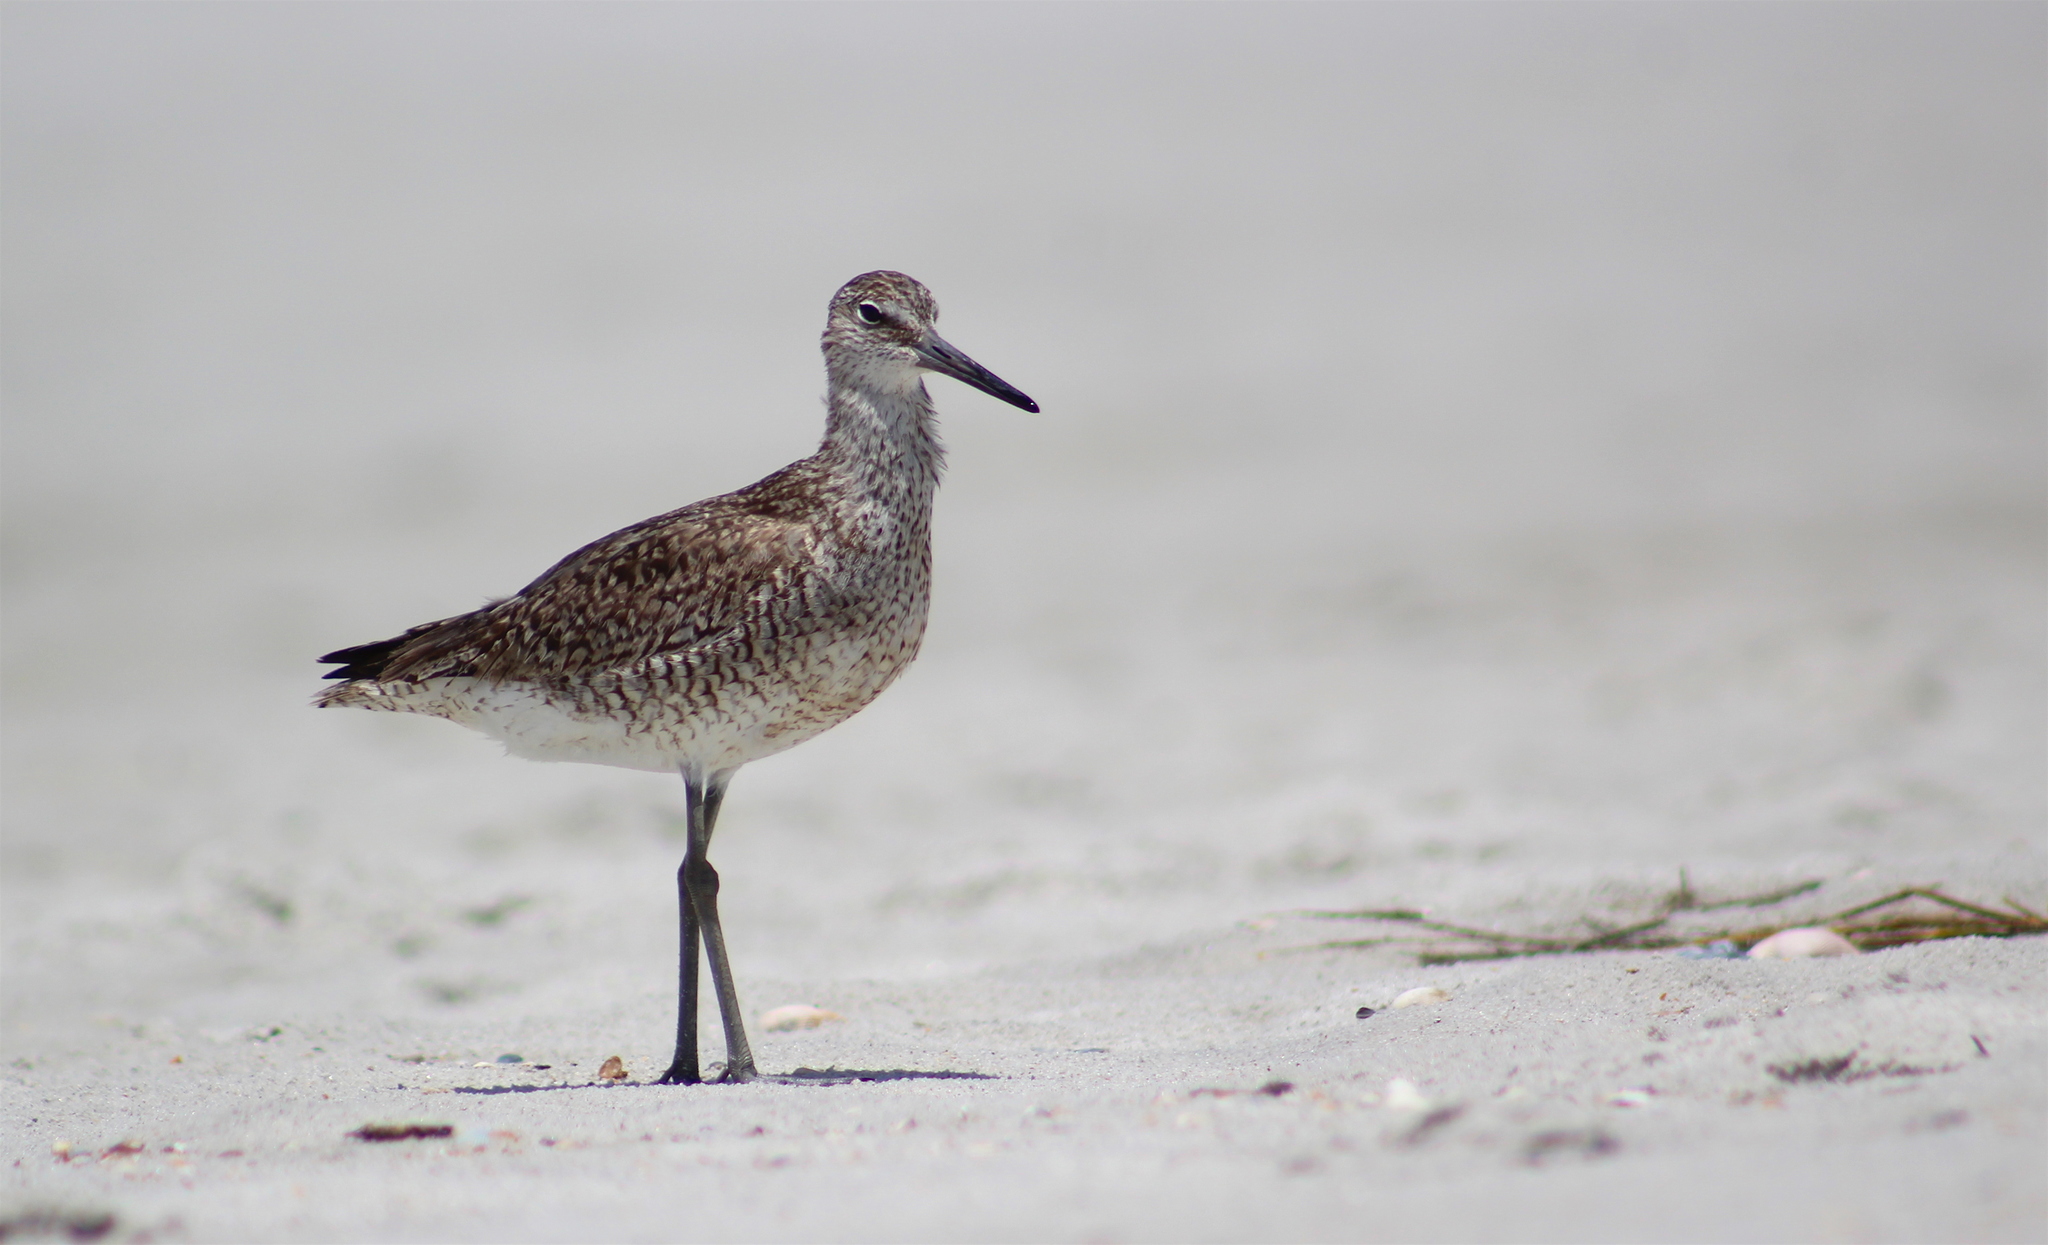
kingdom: Animalia
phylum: Chordata
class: Aves
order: Charadriiformes
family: Scolopacidae
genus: Tringa
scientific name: Tringa semipalmata
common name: Willet
